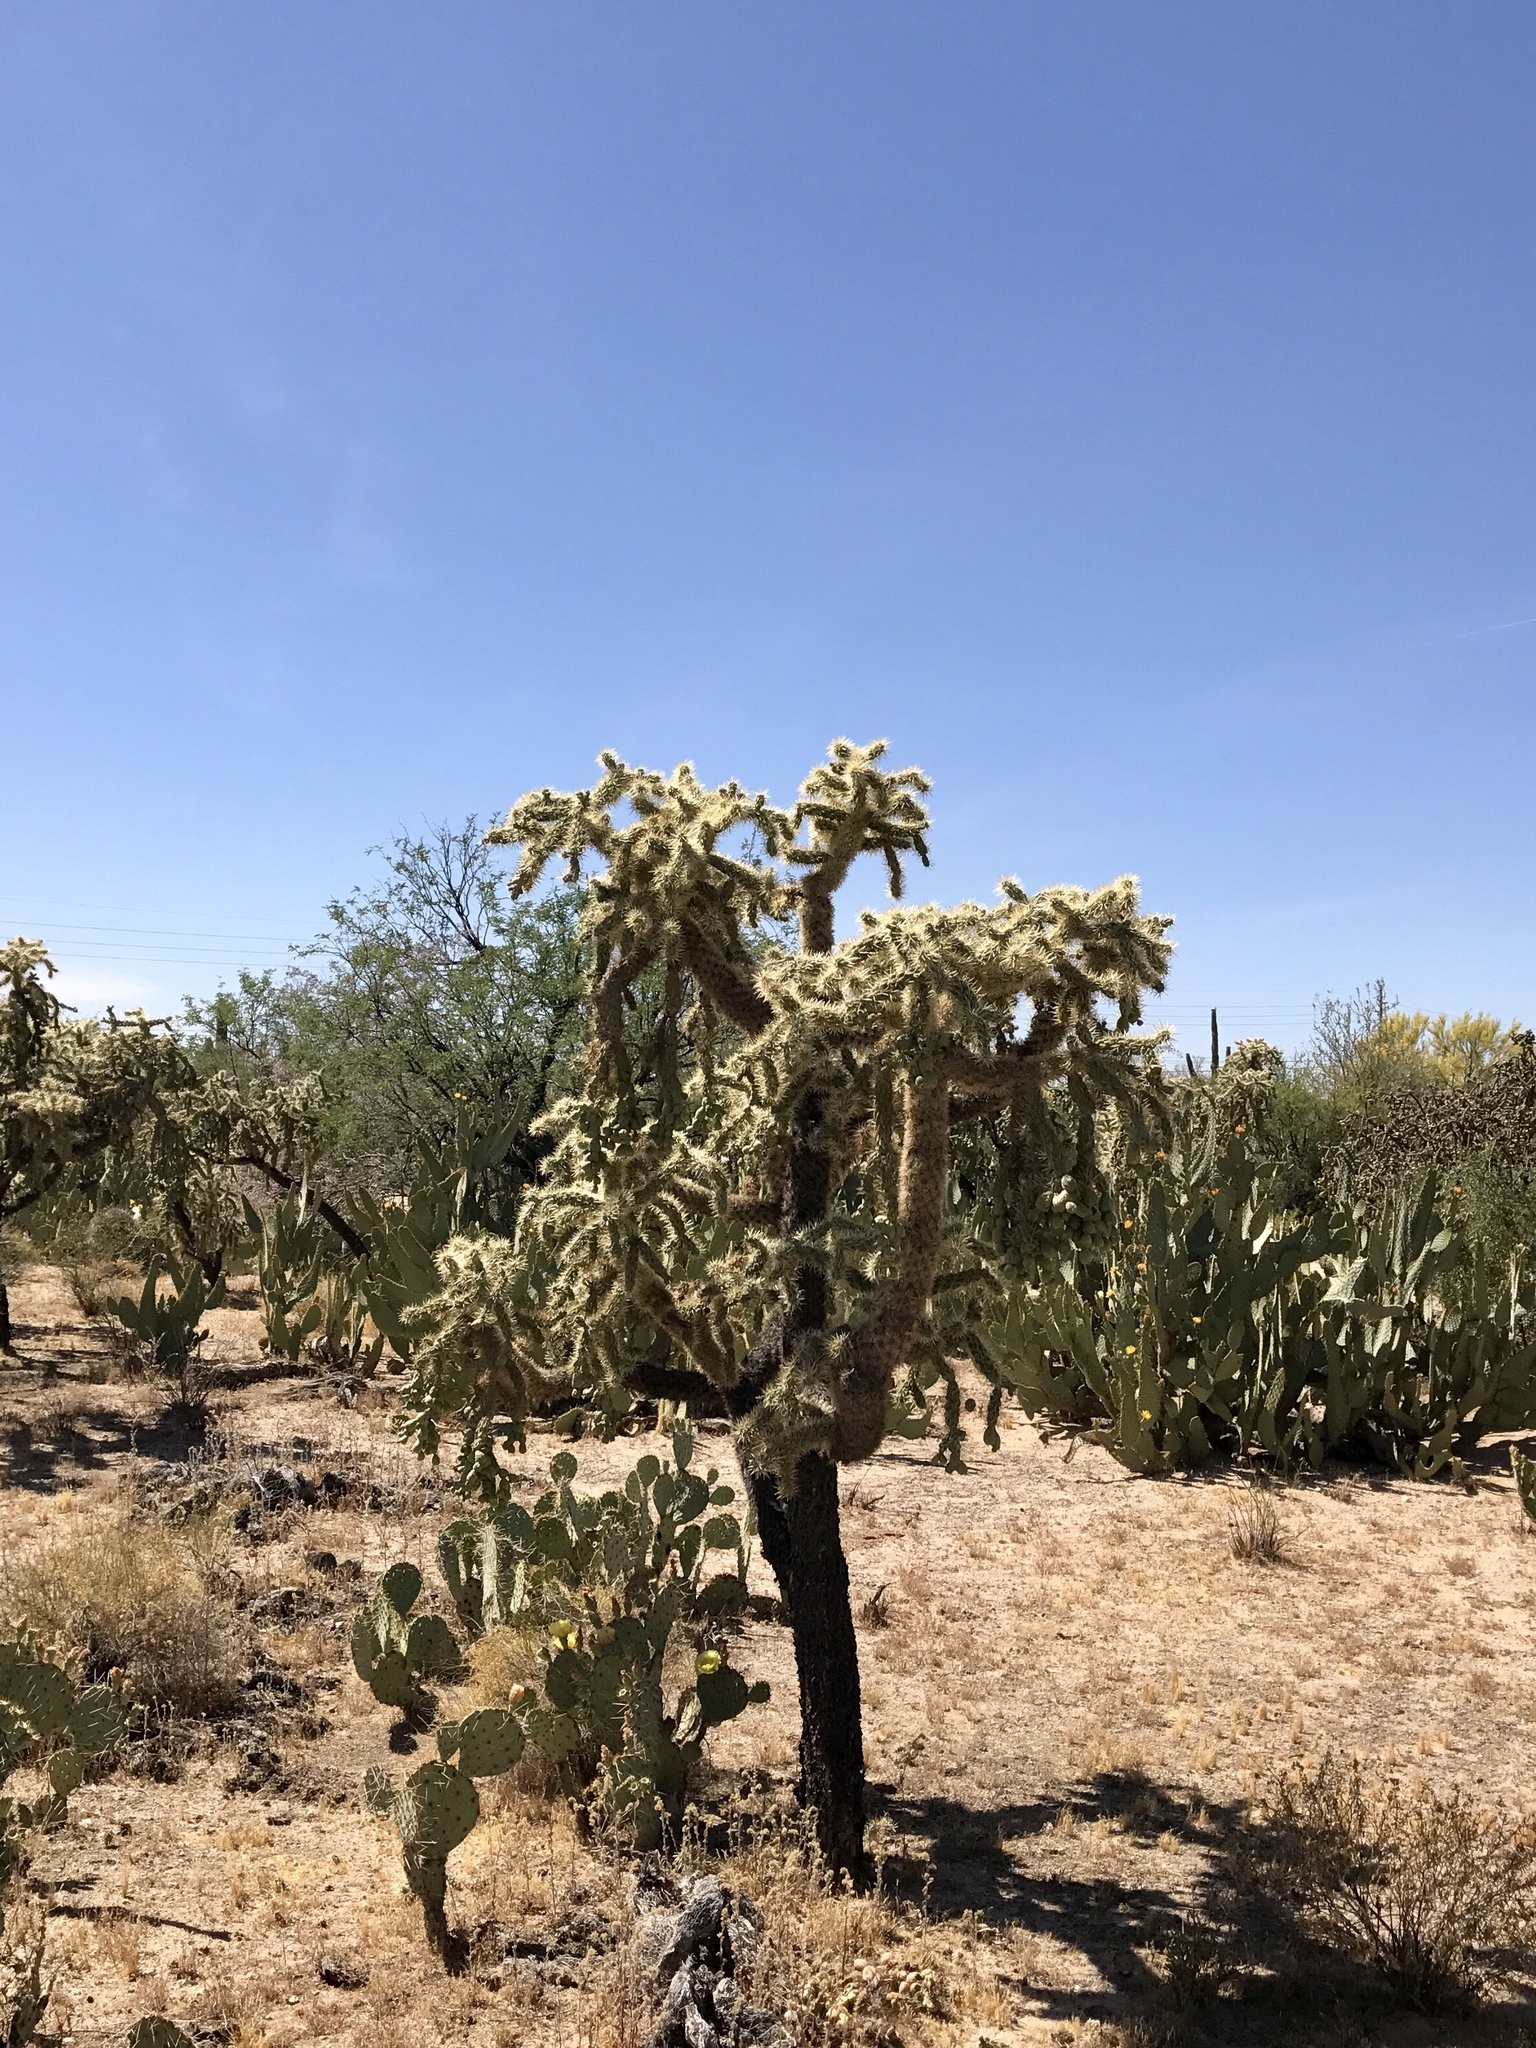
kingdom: Plantae
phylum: Tracheophyta
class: Magnoliopsida
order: Caryophyllales
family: Cactaceae
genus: Cylindropuntia
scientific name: Cylindropuntia fulgida
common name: Jumping cholla
